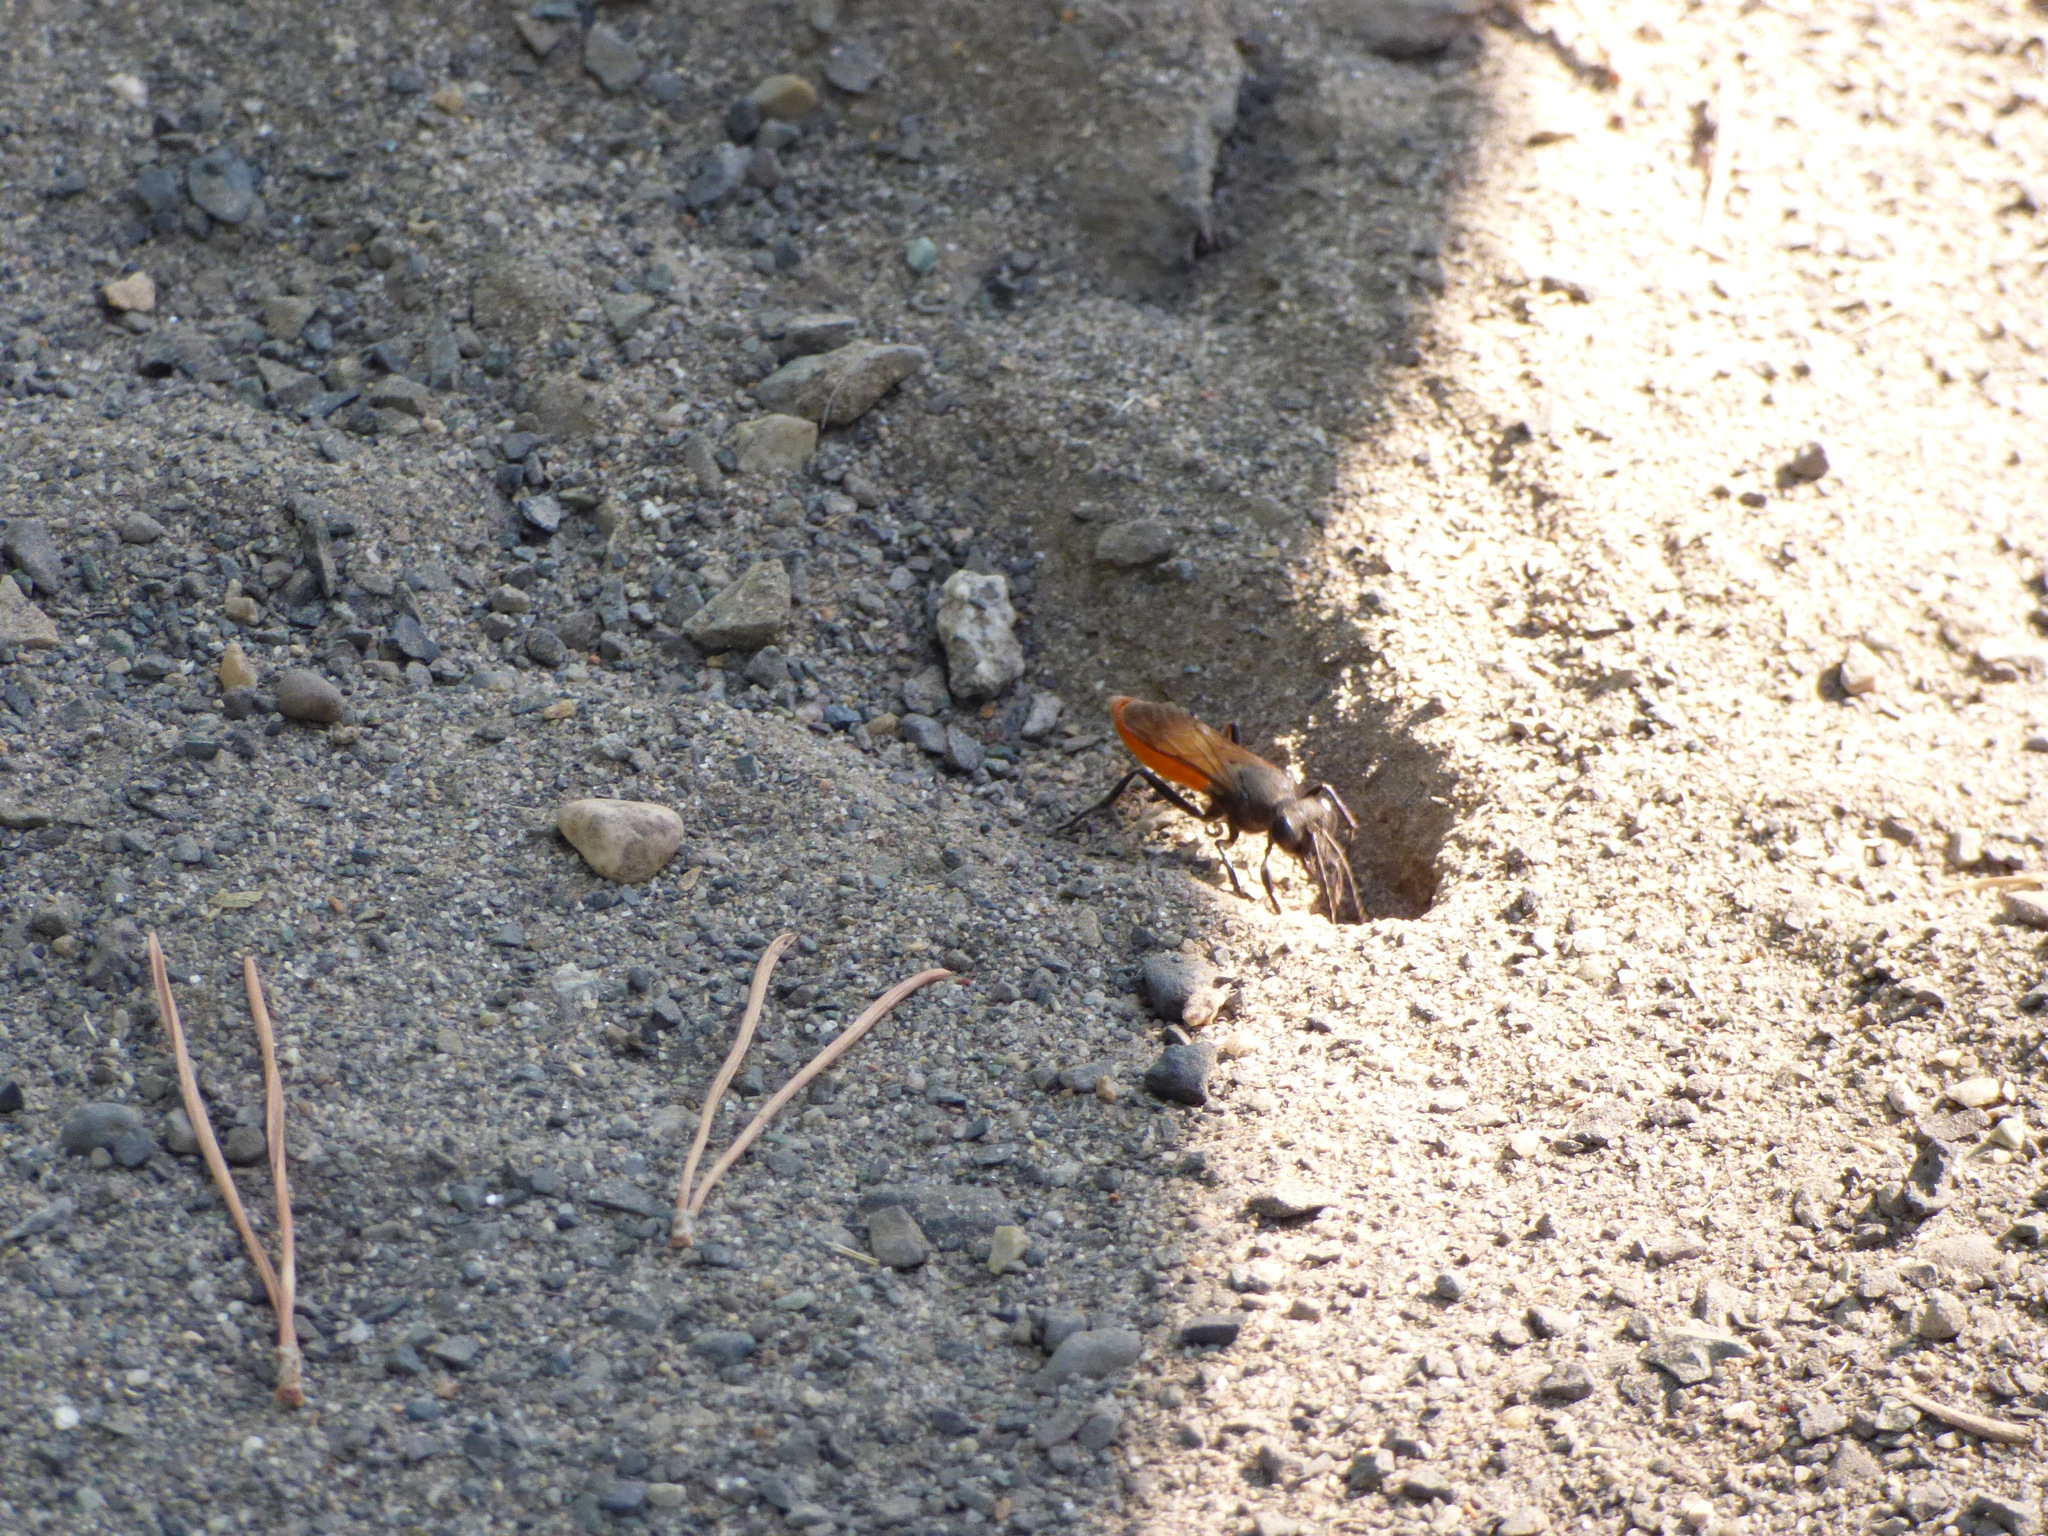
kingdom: Animalia
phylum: Arthropoda
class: Insecta
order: Hymenoptera
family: Sphecidae
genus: Sphex
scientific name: Sphex lucae
